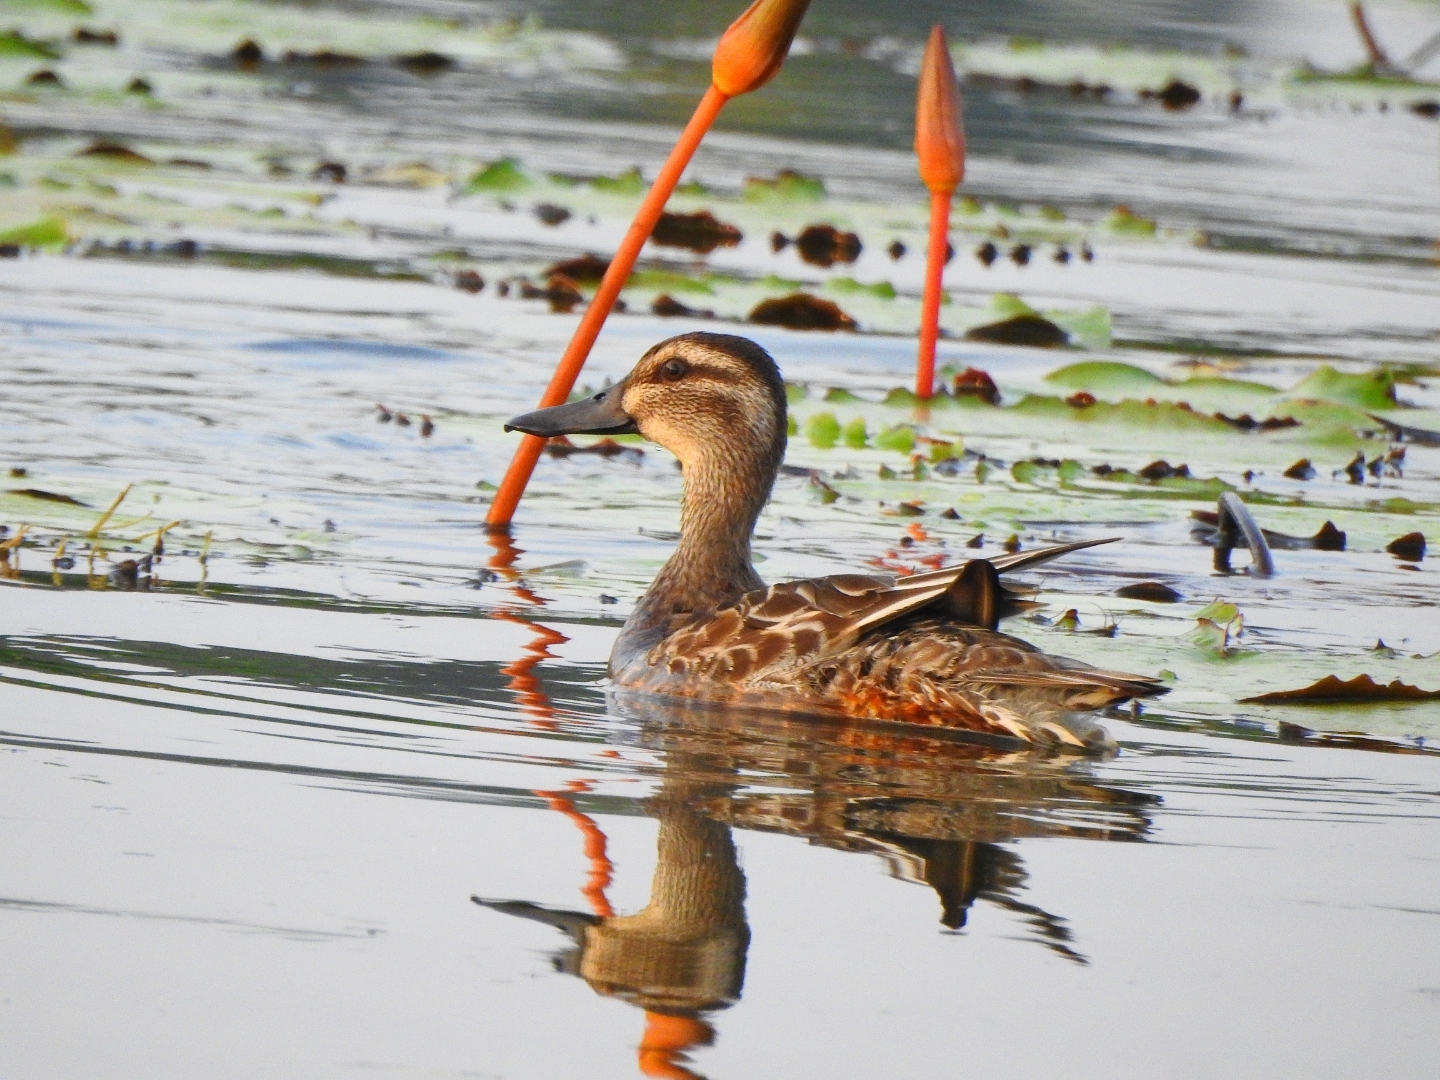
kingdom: Animalia
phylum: Chordata
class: Aves
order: Anseriformes
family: Anatidae
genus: Spatula
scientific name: Spatula querquedula
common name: Garganey
